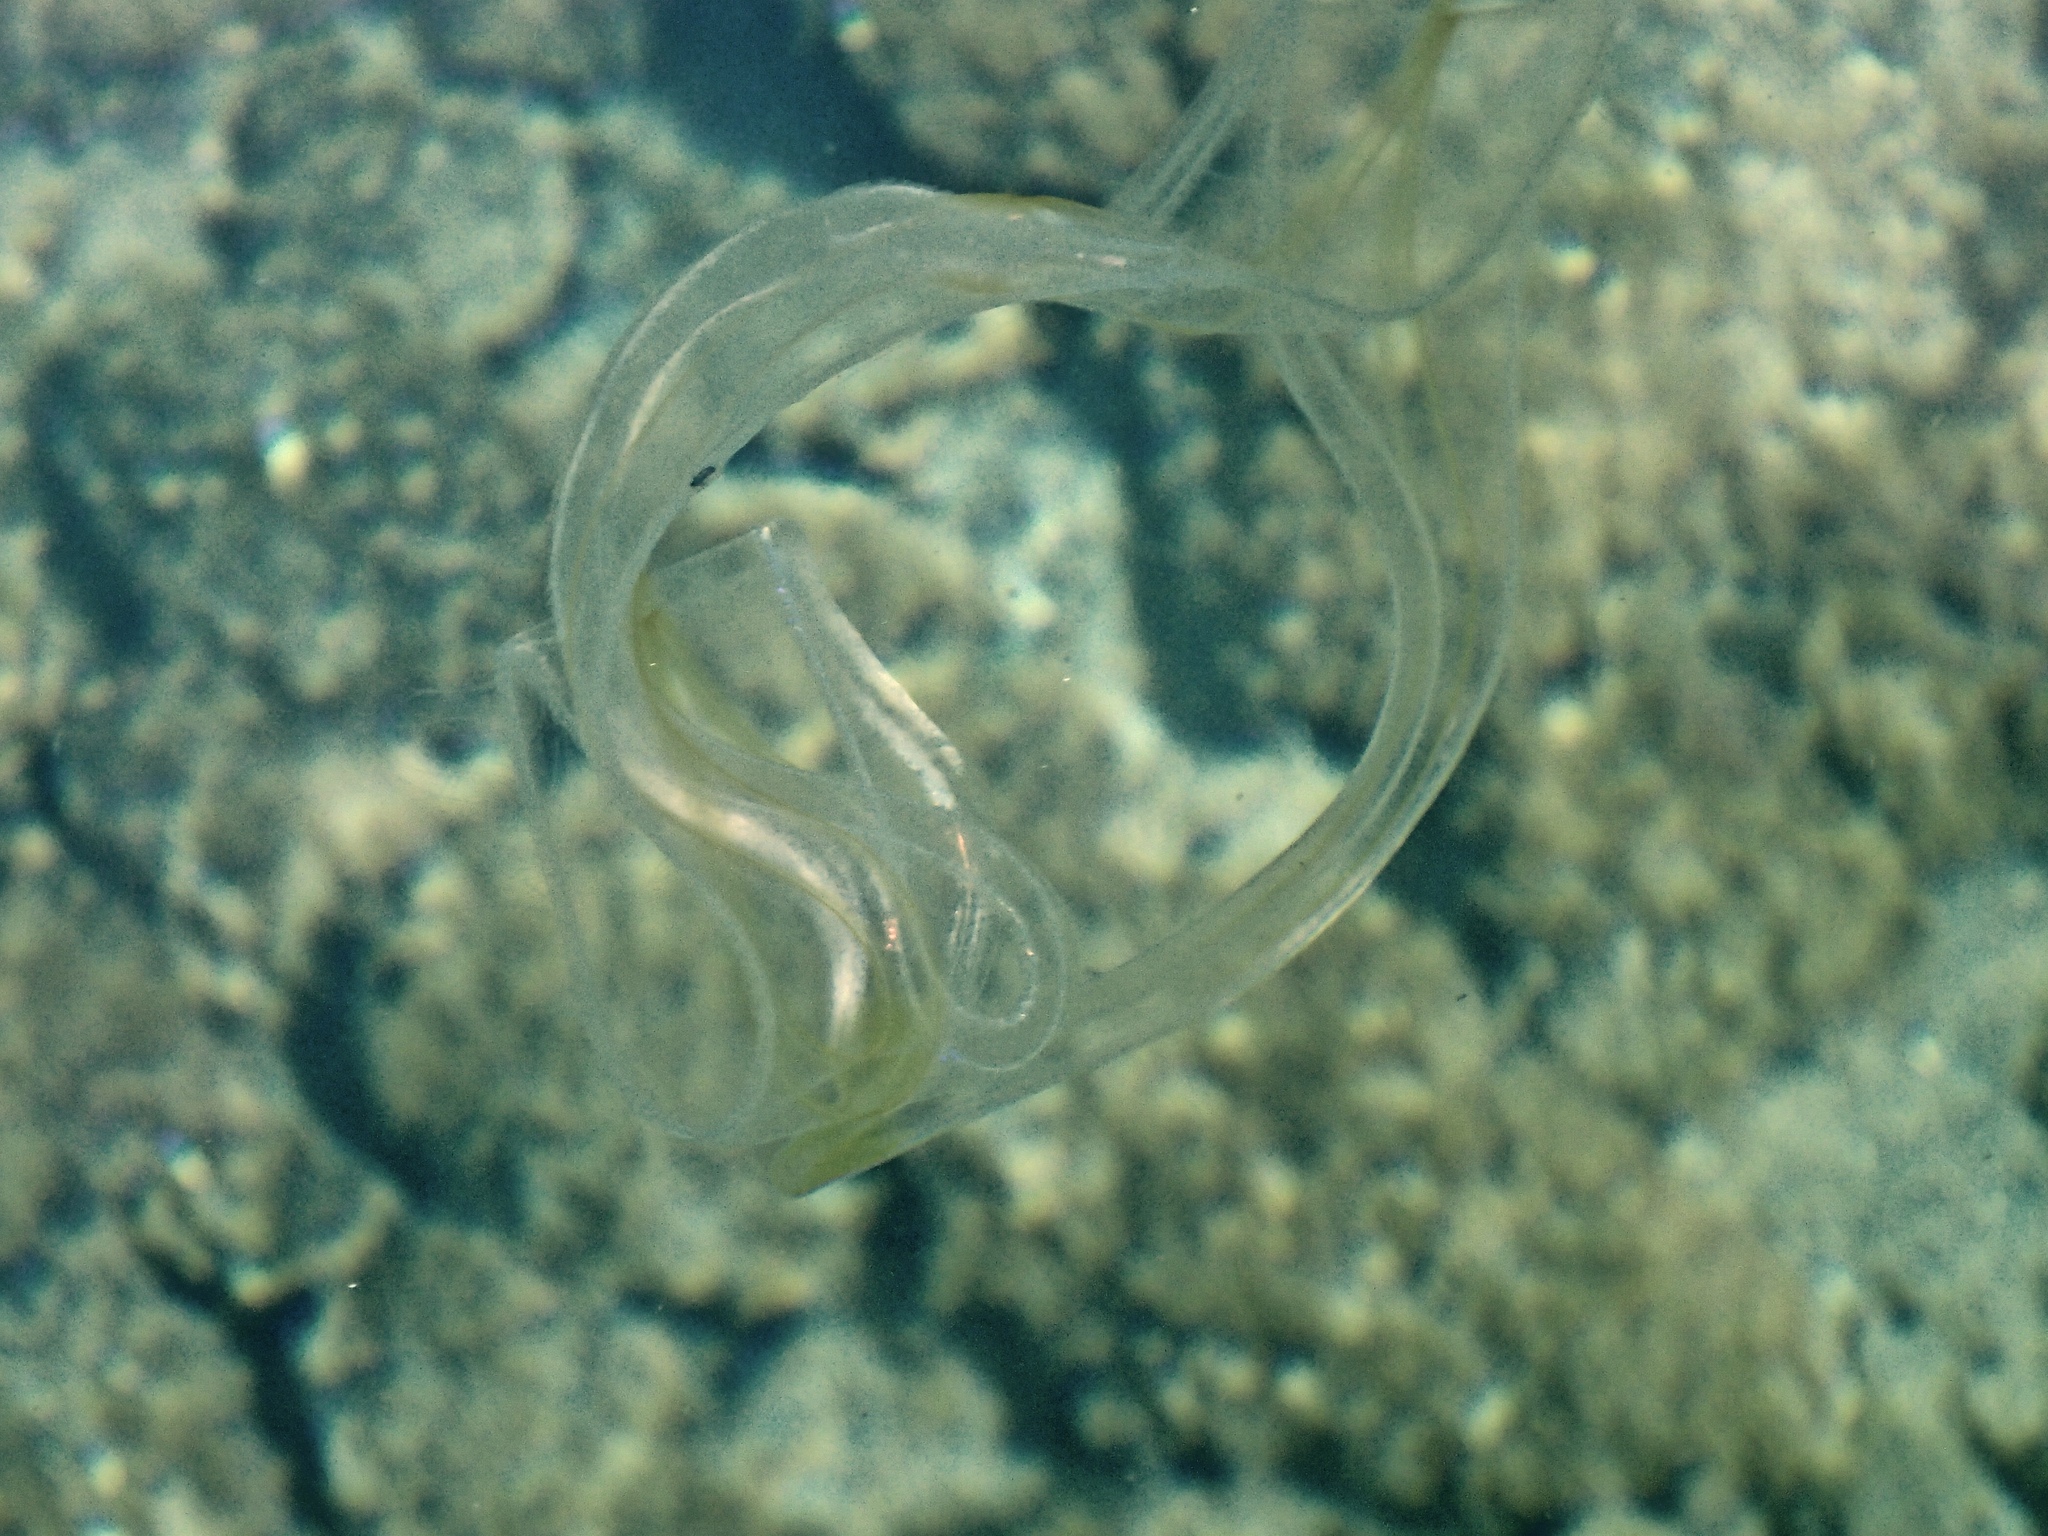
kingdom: Animalia
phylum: Ctenophora
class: Tentaculata
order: Cestida
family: Cestidae
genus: Cestum
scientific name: Cestum veneris
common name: Venus girdle
